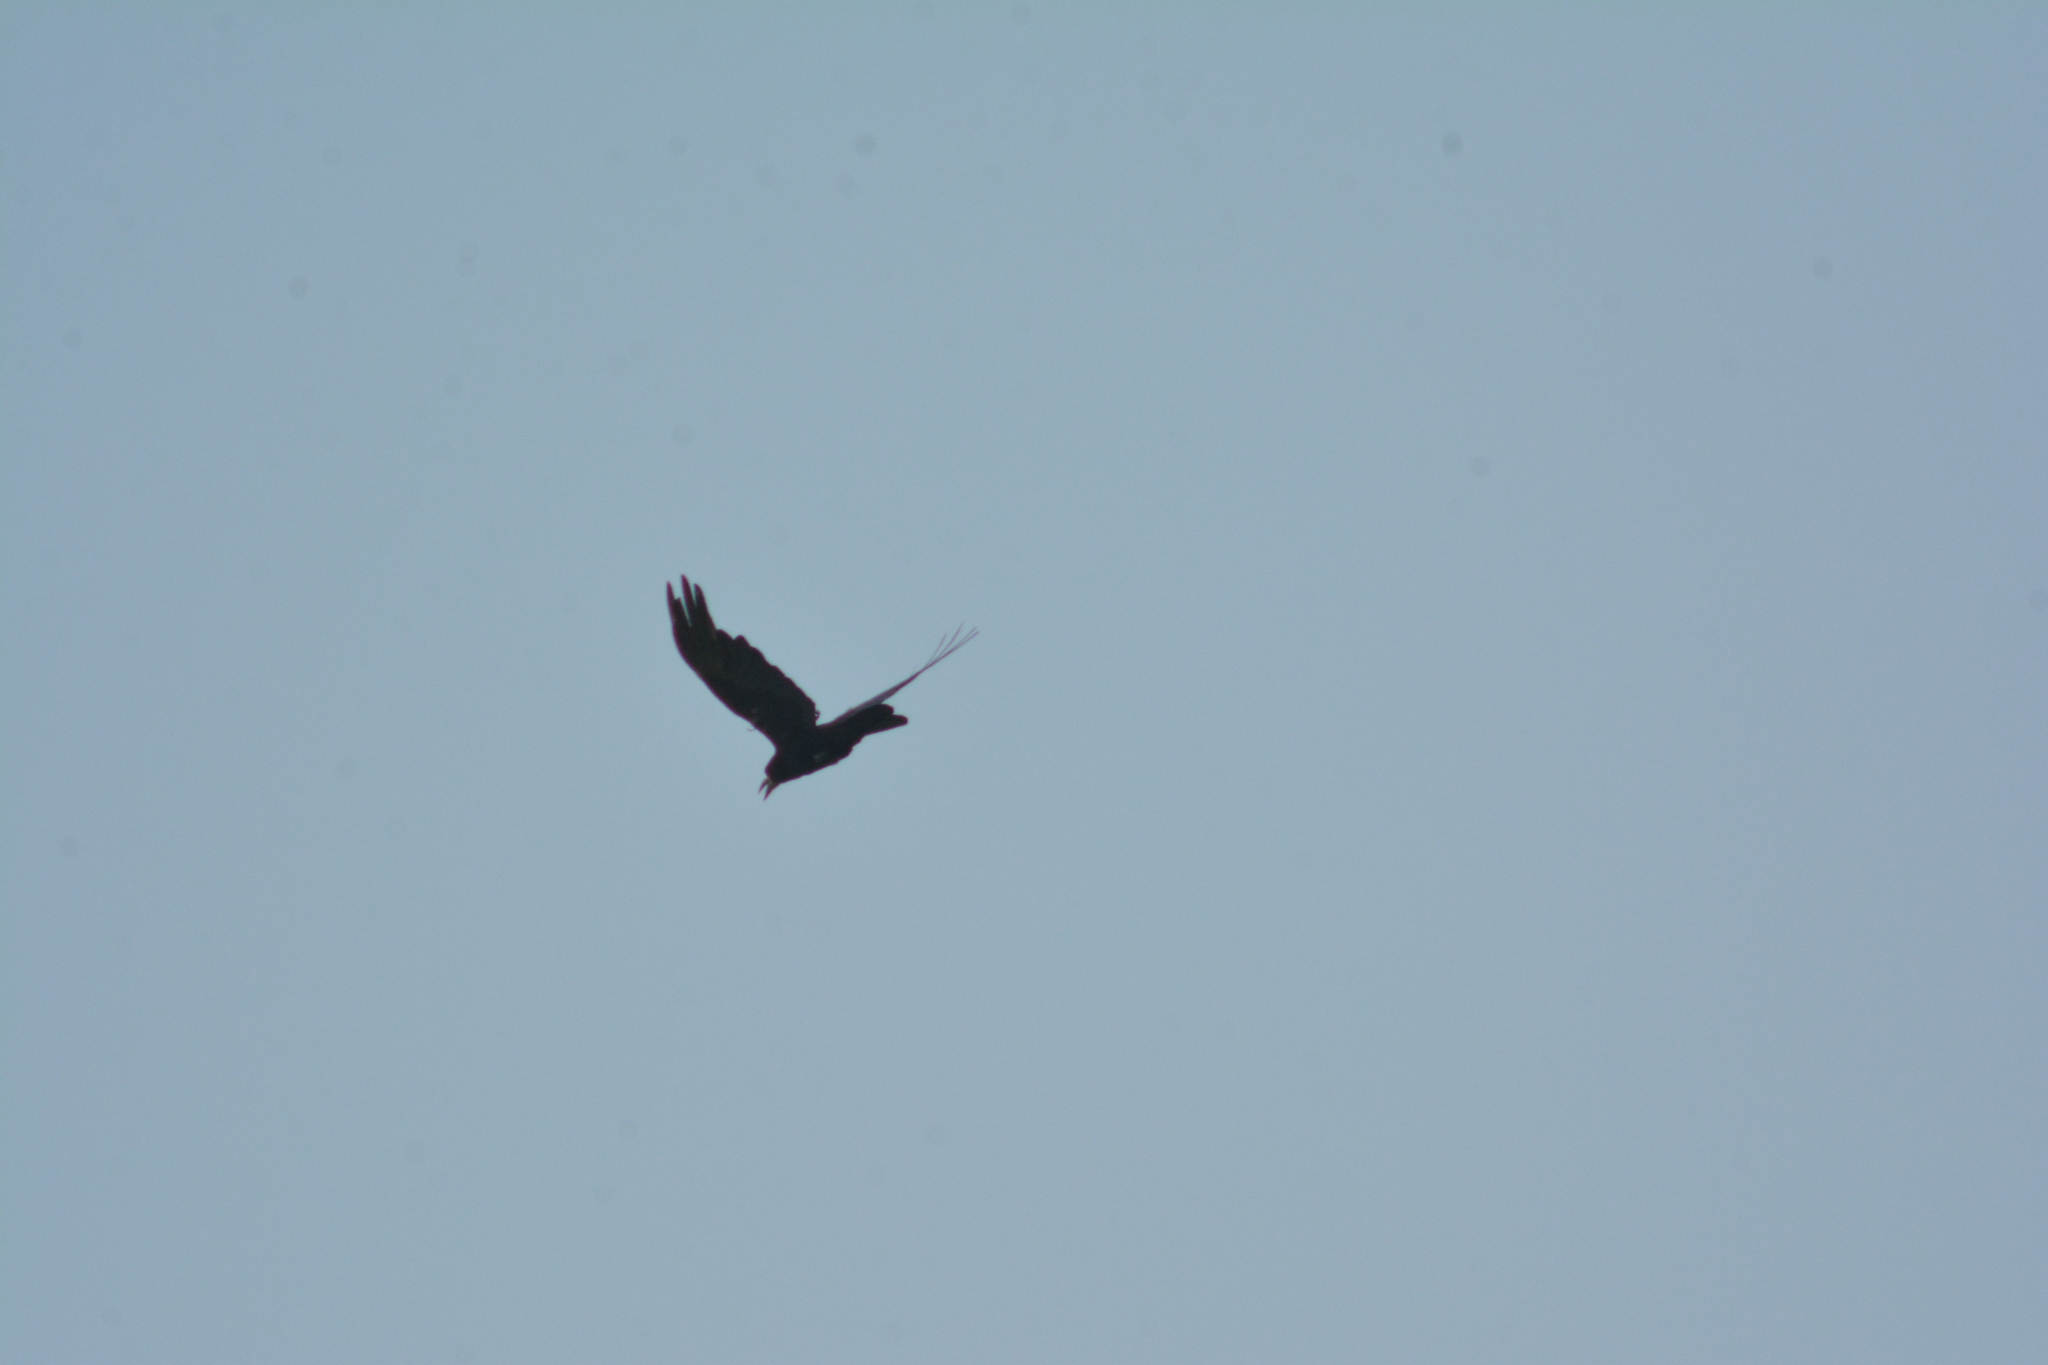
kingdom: Animalia
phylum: Chordata
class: Aves
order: Passeriformes
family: Corvidae
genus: Corvus
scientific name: Corvus frugilegus
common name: Rook
